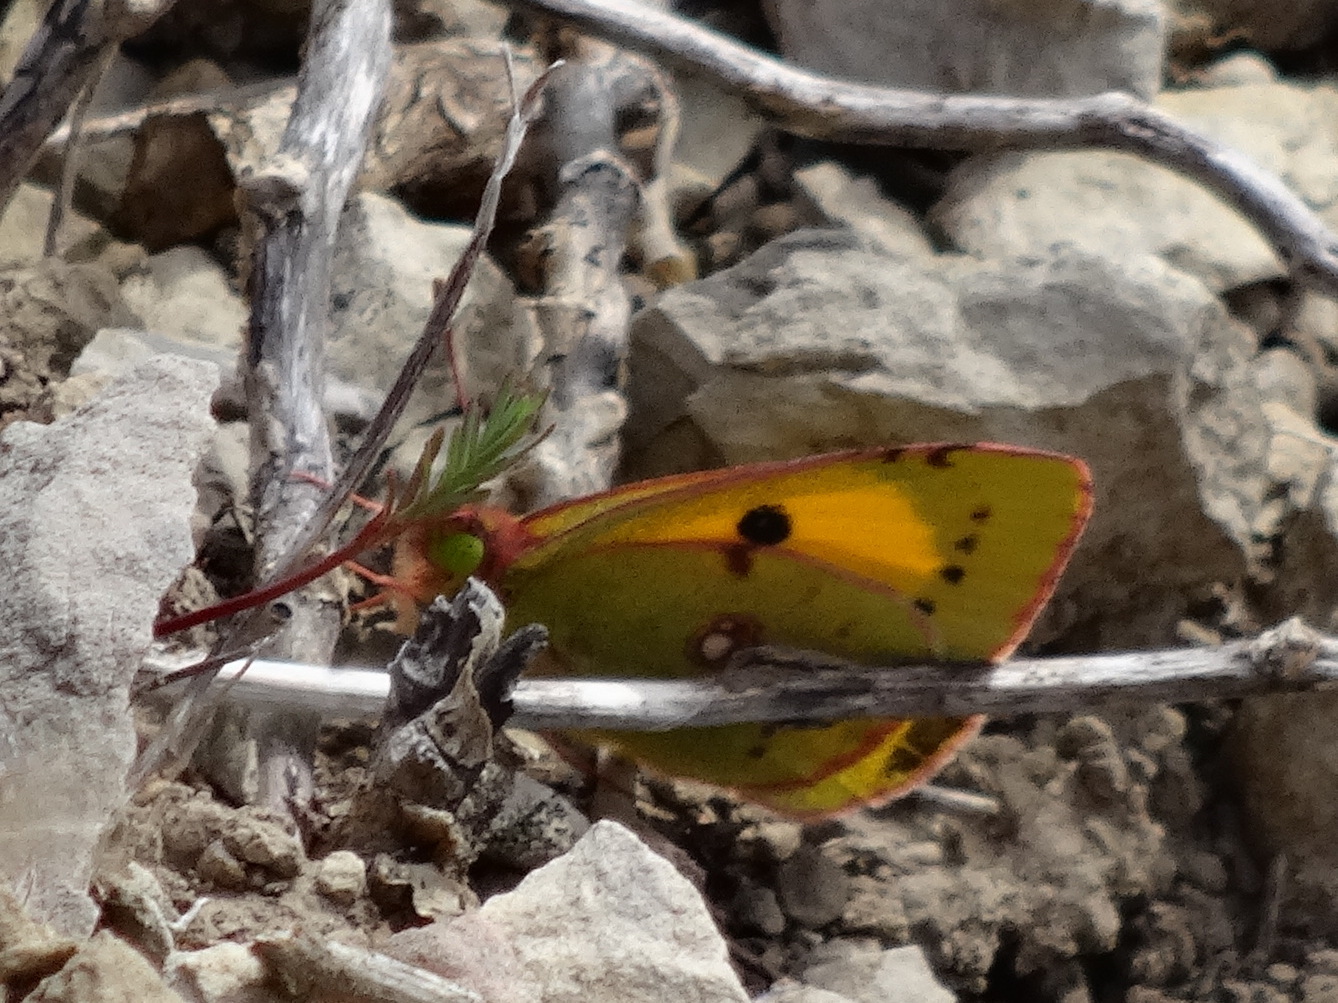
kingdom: Animalia
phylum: Arthropoda
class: Insecta
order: Lepidoptera
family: Pieridae
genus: Colias
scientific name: Colias croceus
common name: Clouded yellow
